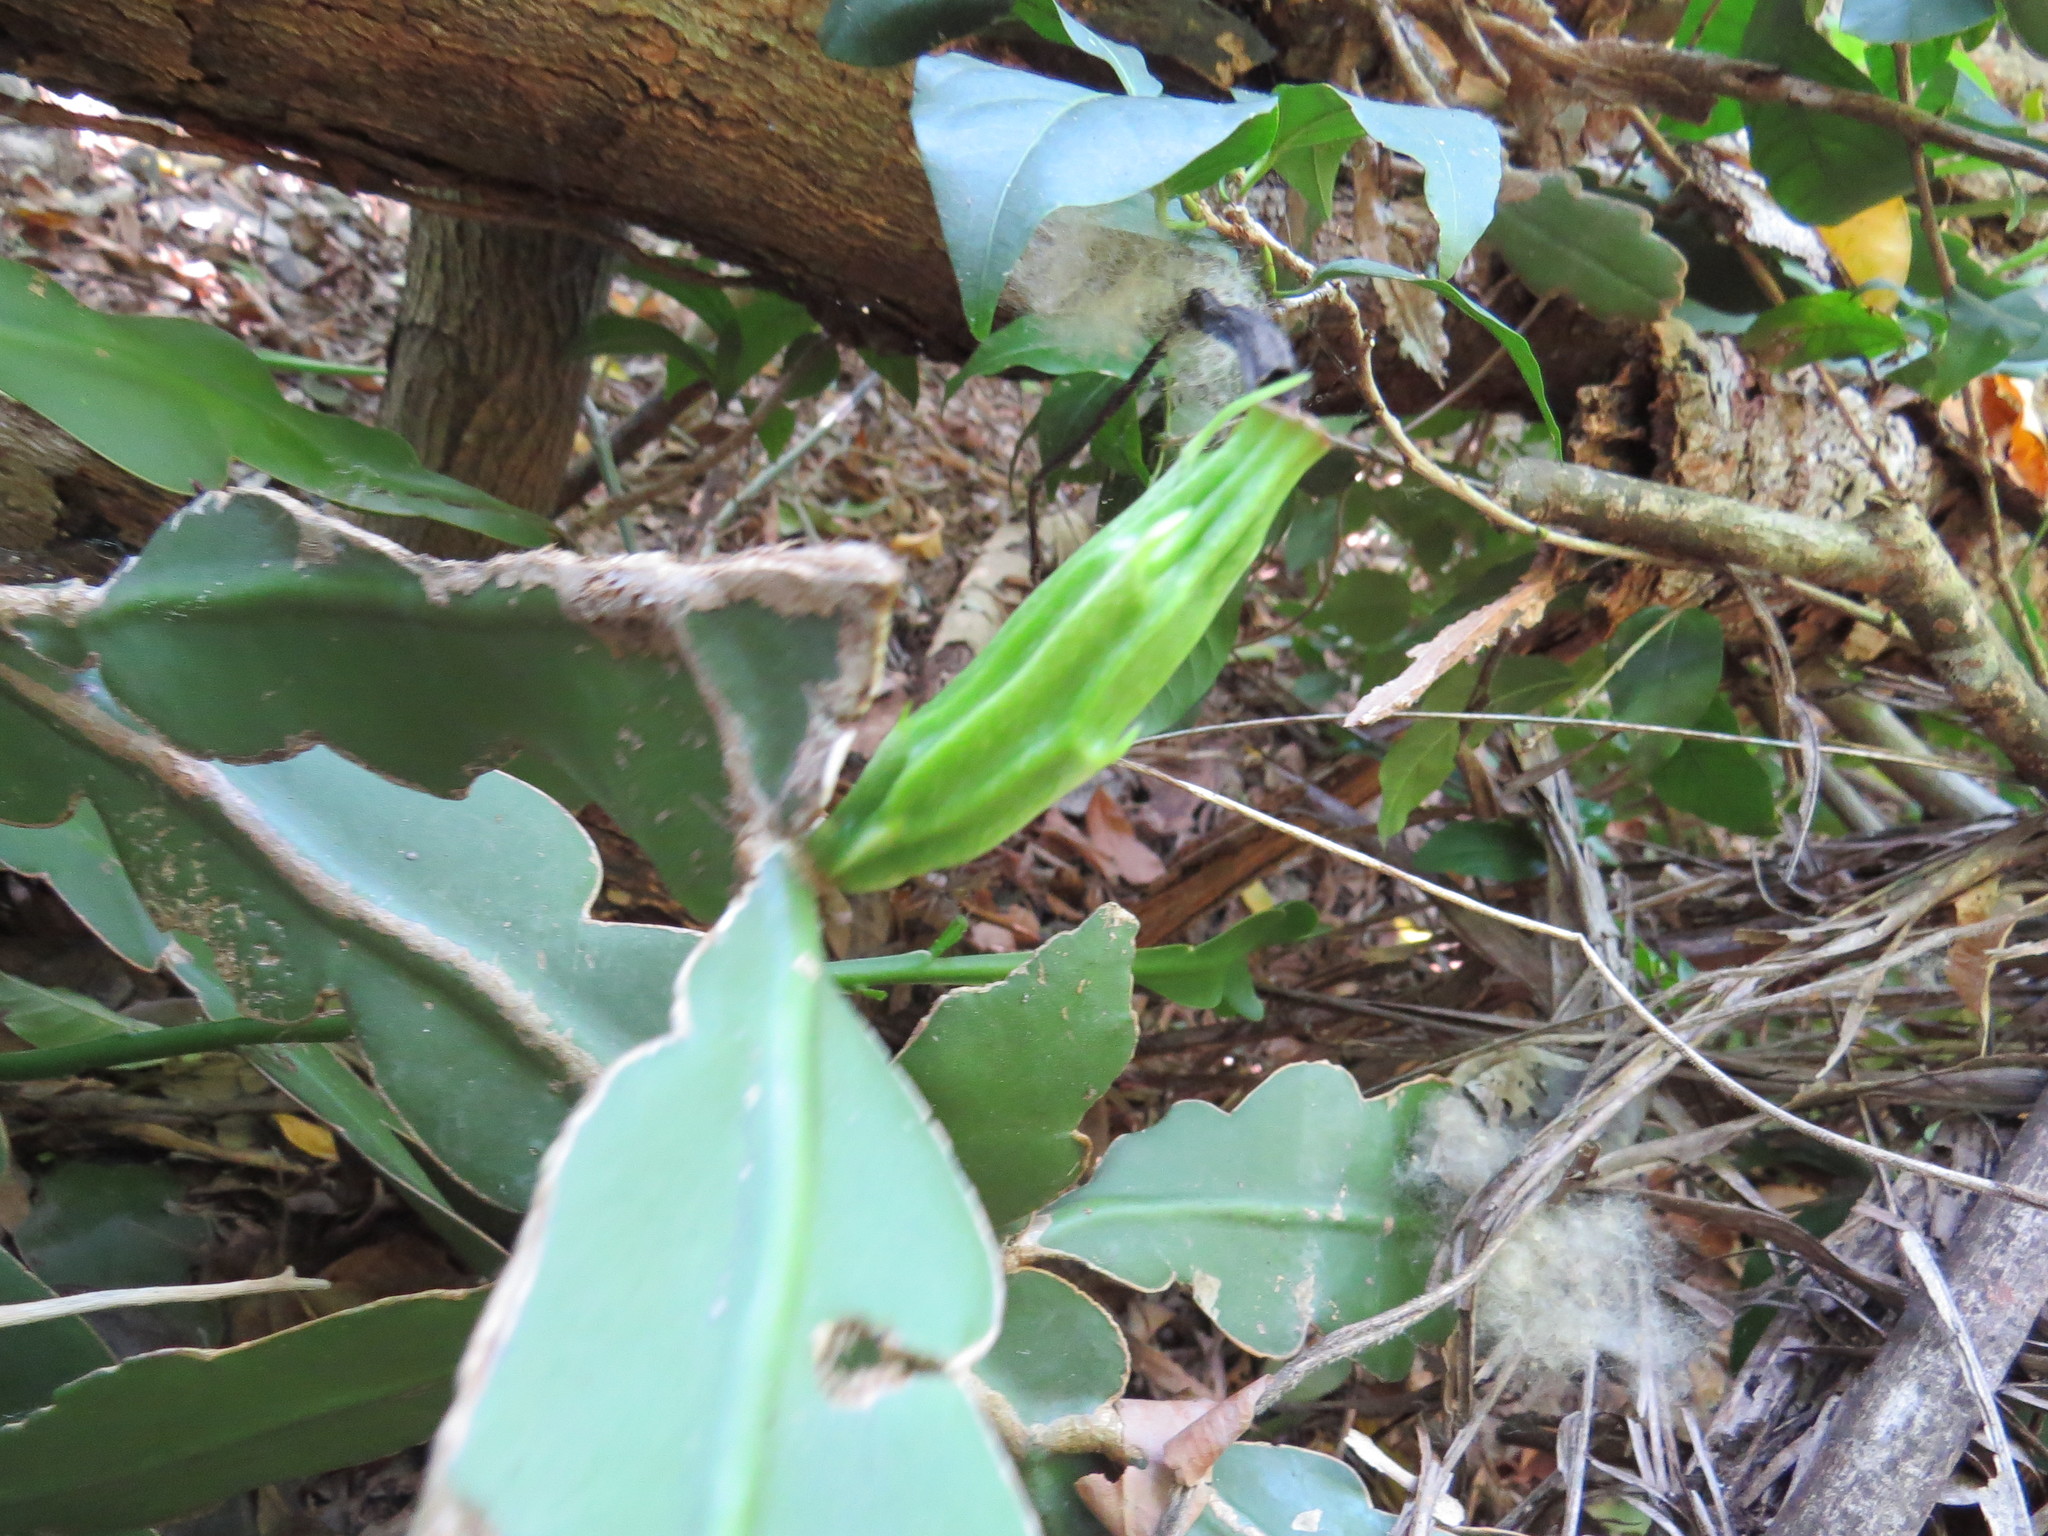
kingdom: Plantae
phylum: Tracheophyta
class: Magnoliopsida
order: Caryophyllales
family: Cactaceae
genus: Epiphyllum
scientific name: Epiphyllum phyllanthus
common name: Climbing cactus
